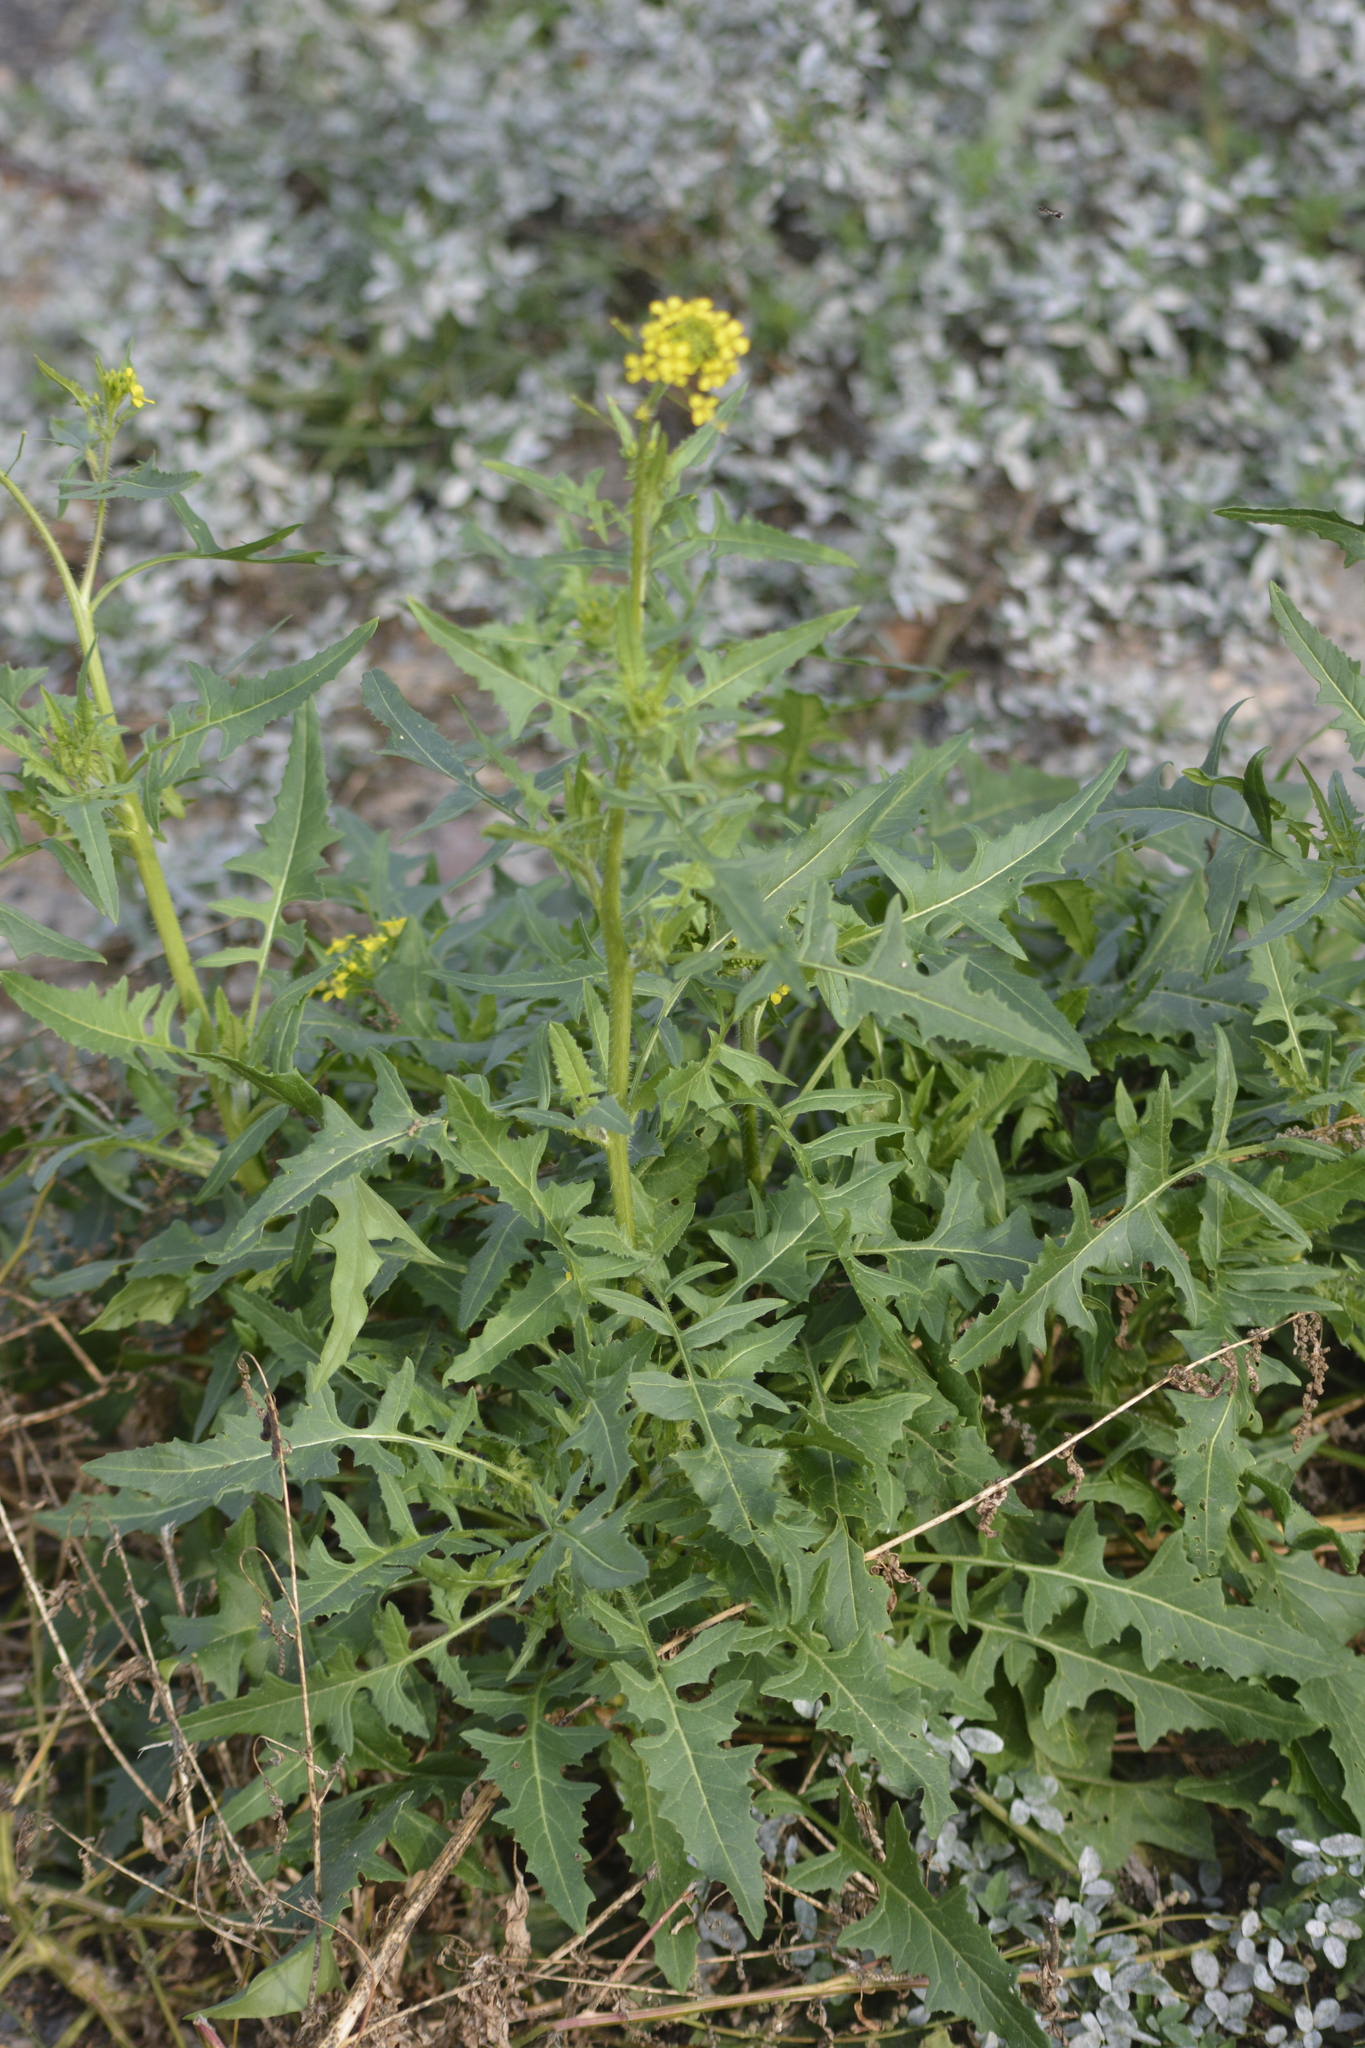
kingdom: Plantae
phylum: Tracheophyta
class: Magnoliopsida
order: Brassicales
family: Brassicaceae
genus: Sisymbrium
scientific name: Sisymbrium loeselii
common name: False london-rocket
